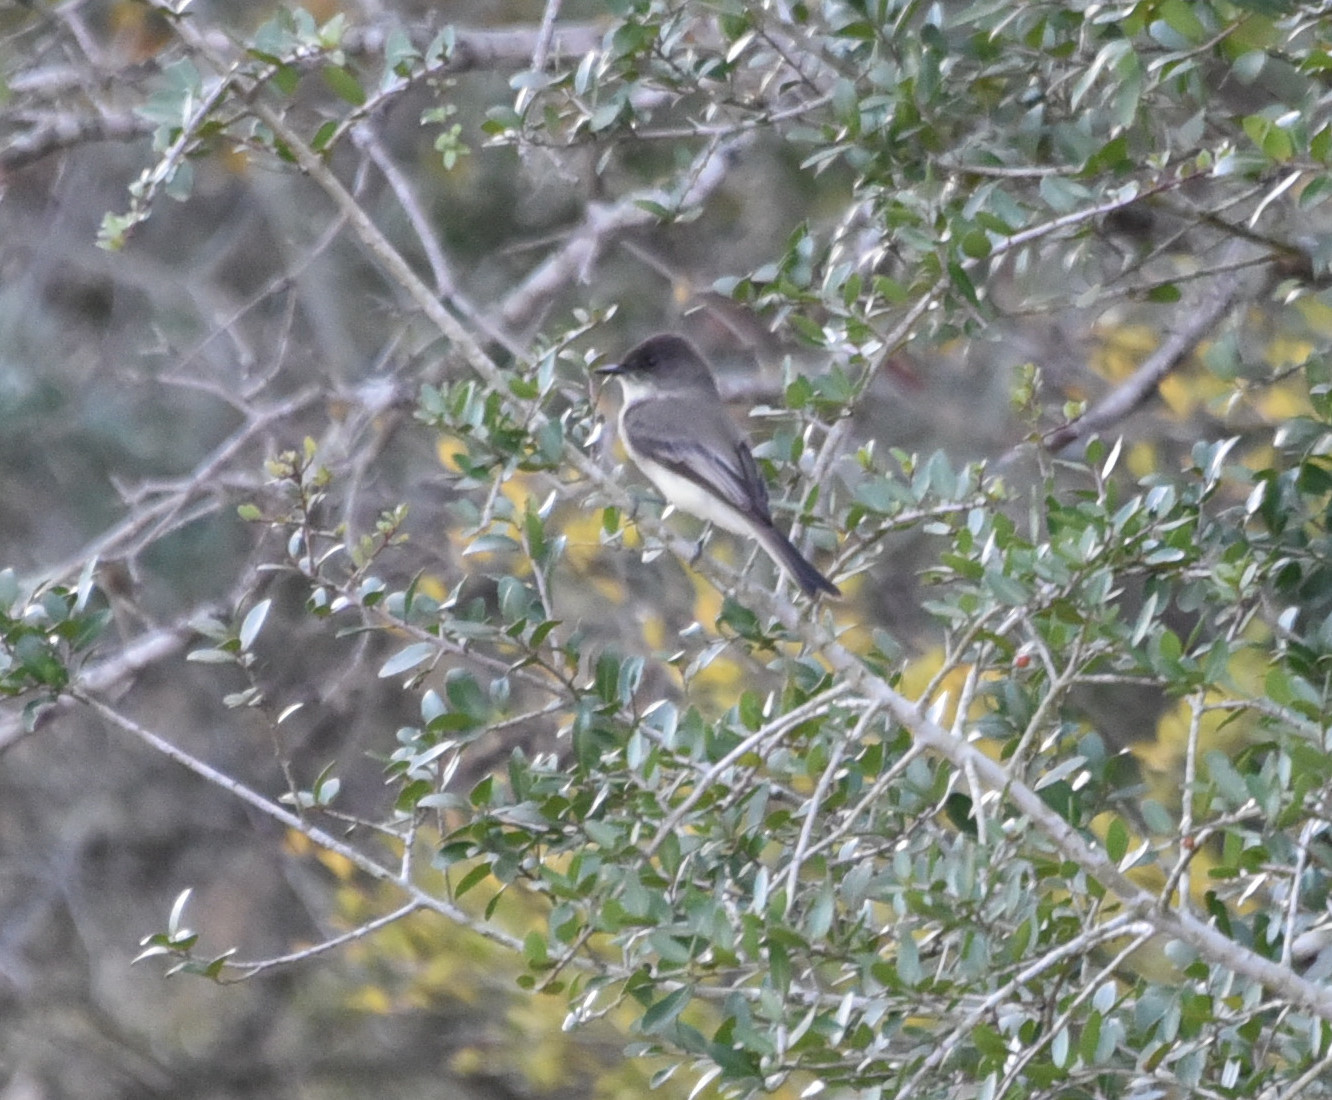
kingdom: Animalia
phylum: Chordata
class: Aves
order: Passeriformes
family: Tyrannidae
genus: Sayornis
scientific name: Sayornis phoebe
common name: Eastern phoebe
